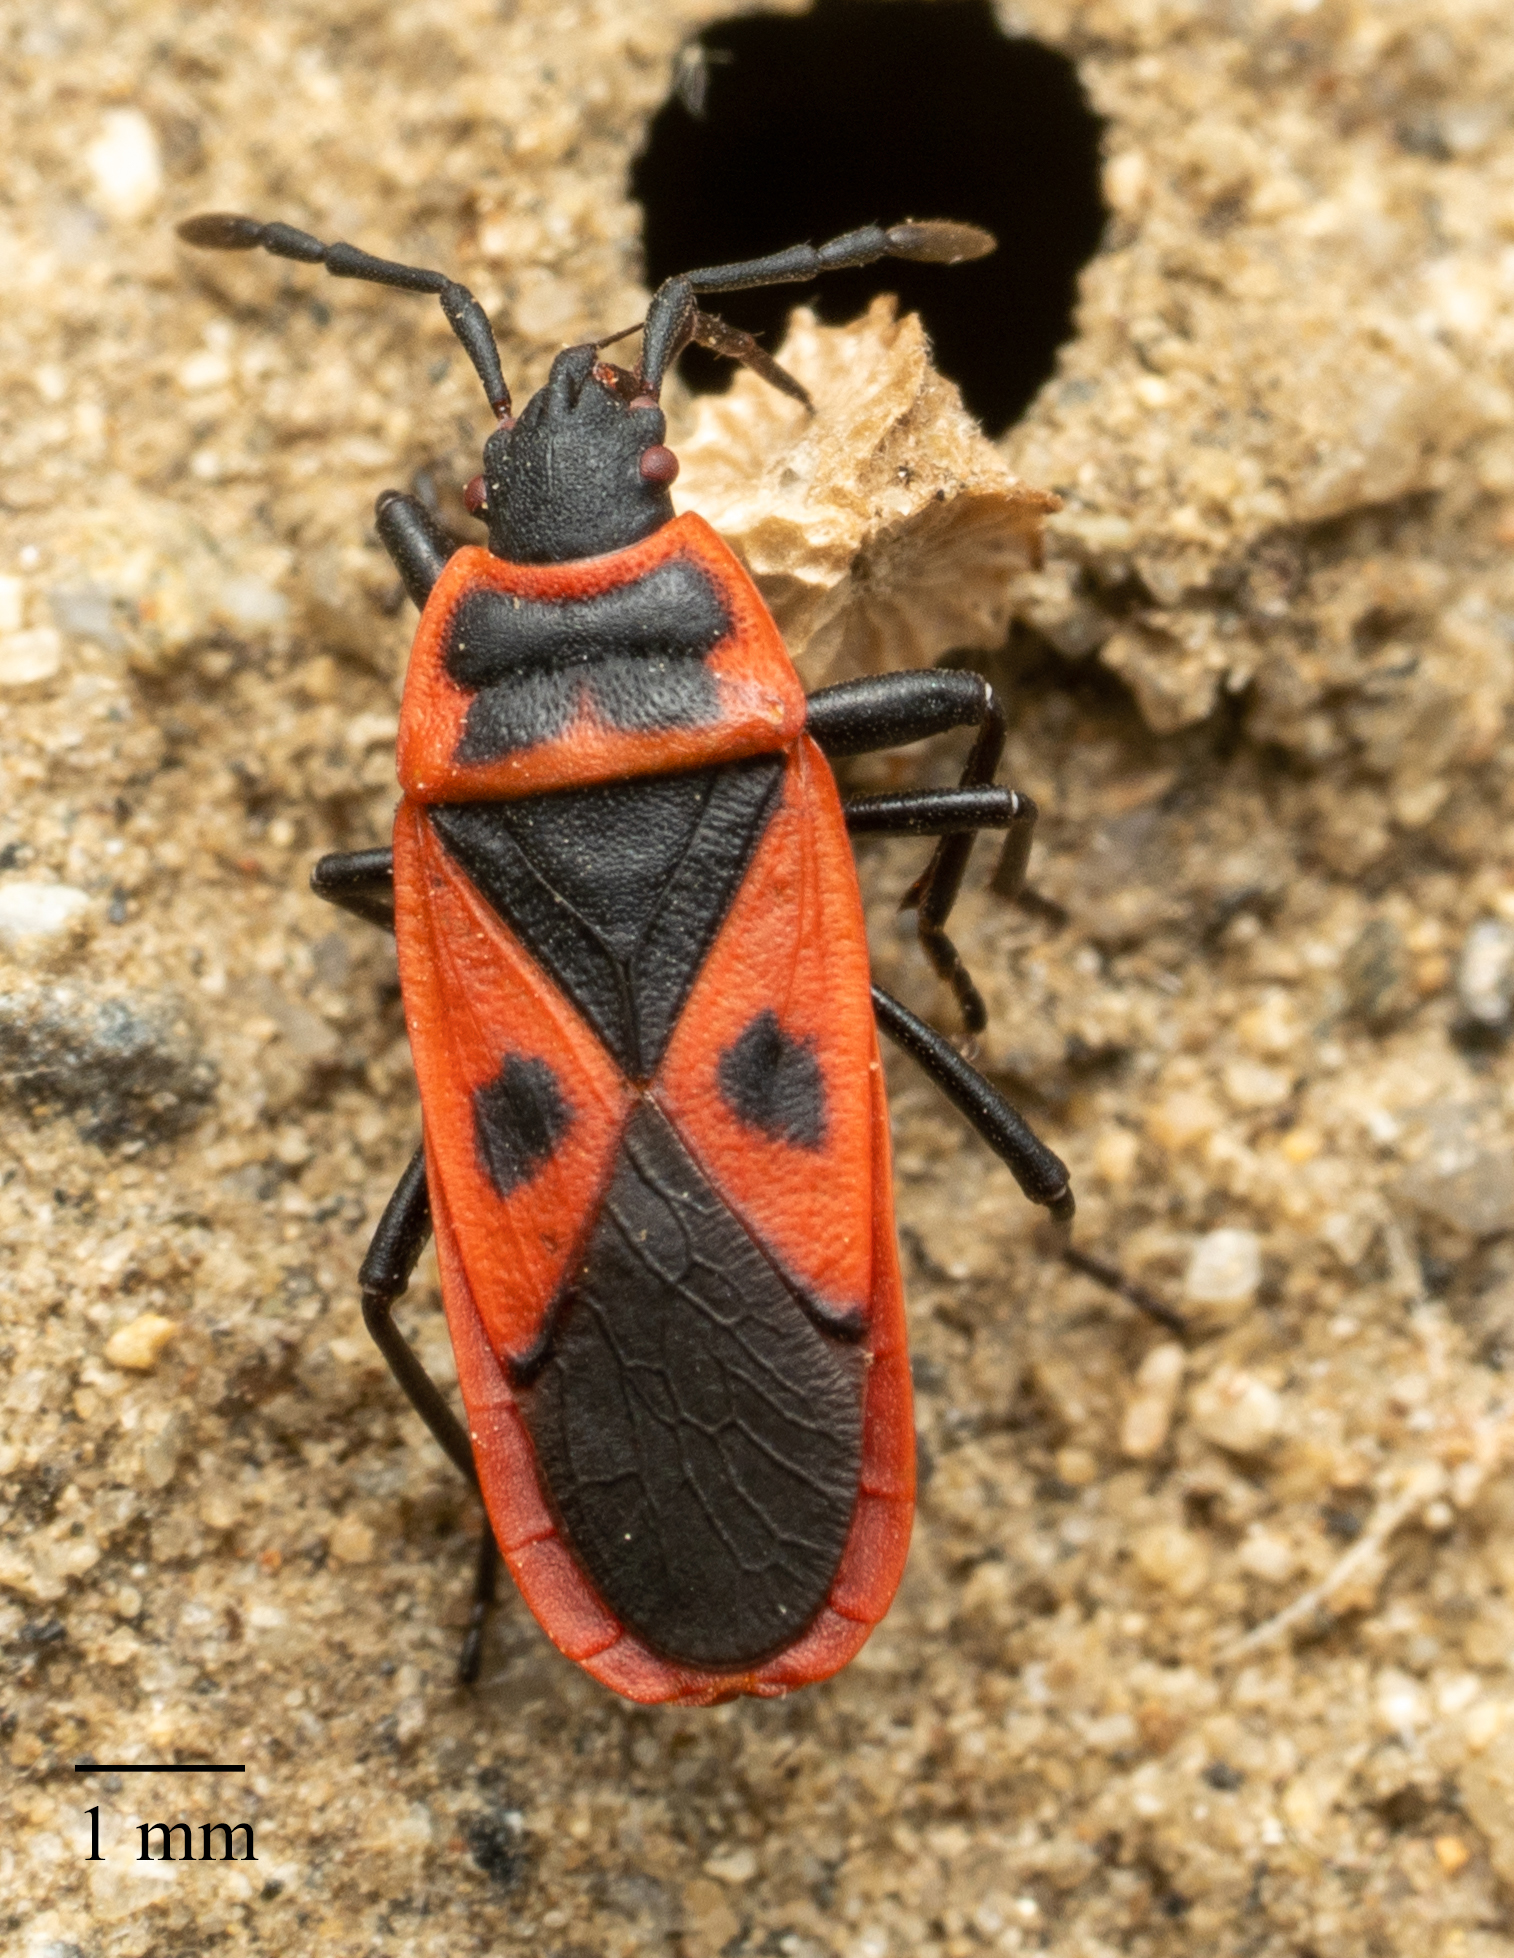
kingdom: Animalia
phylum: Arthropoda
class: Insecta
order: Hemiptera
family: Pyrrhocoridae
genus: Scantius
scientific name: Scantius aegyptius
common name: Red bug
